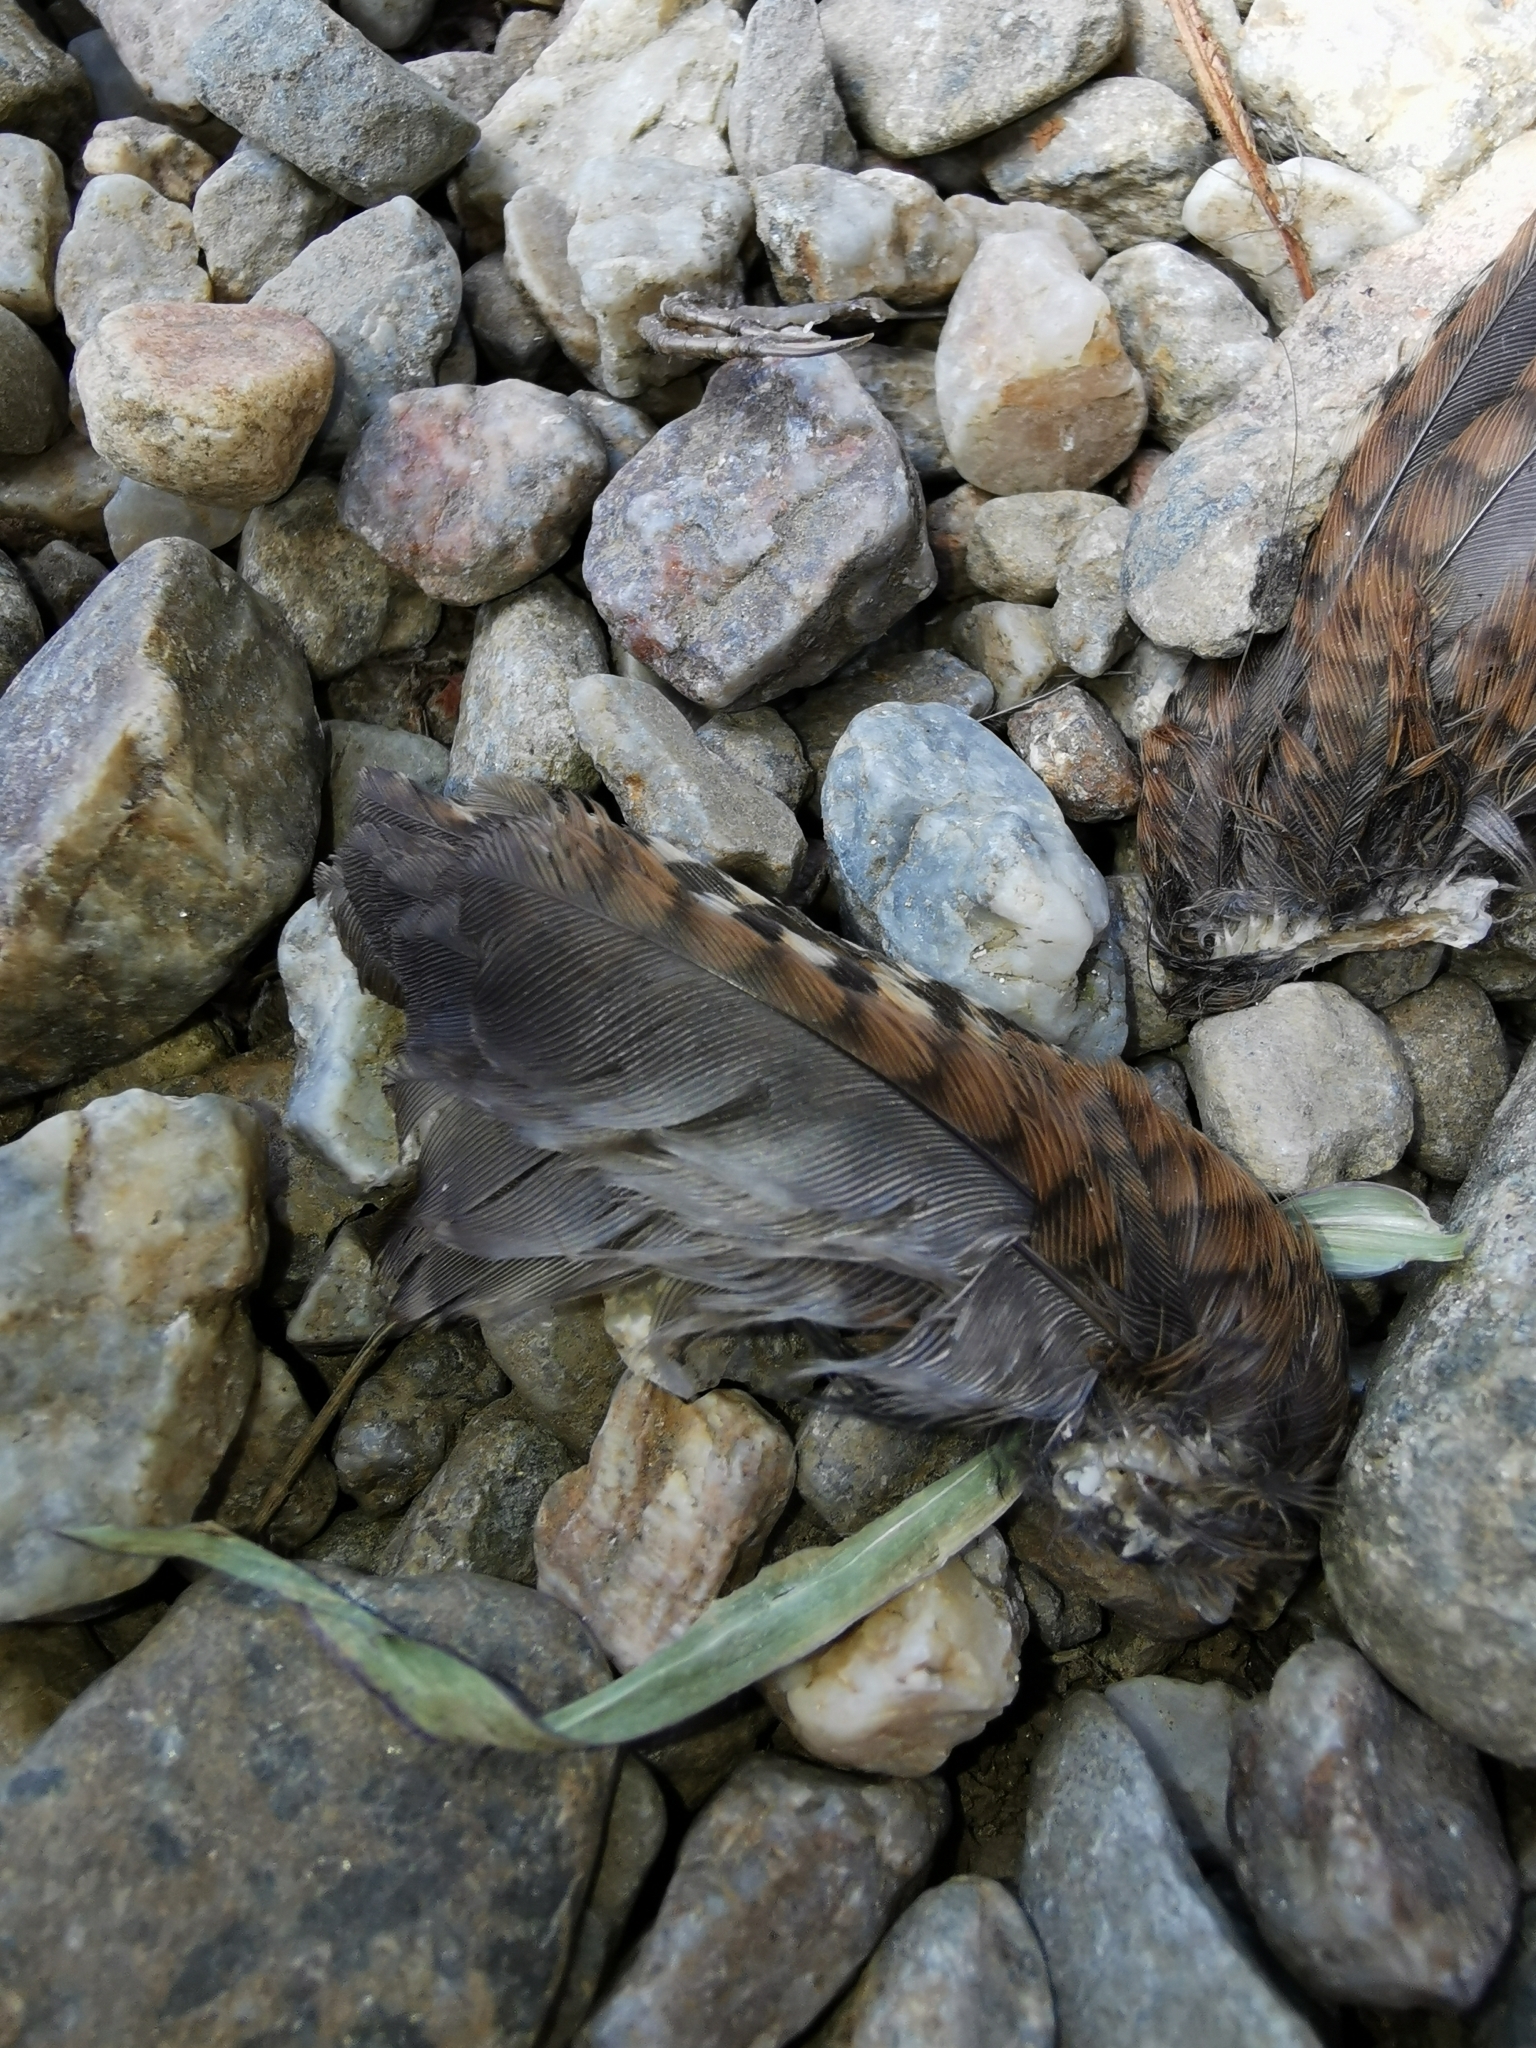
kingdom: Animalia
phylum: Chordata
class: Aves
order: Passeriformes
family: Troglodytidae
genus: Troglodytes
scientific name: Troglodytes troglodytes
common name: Eurasian wren
